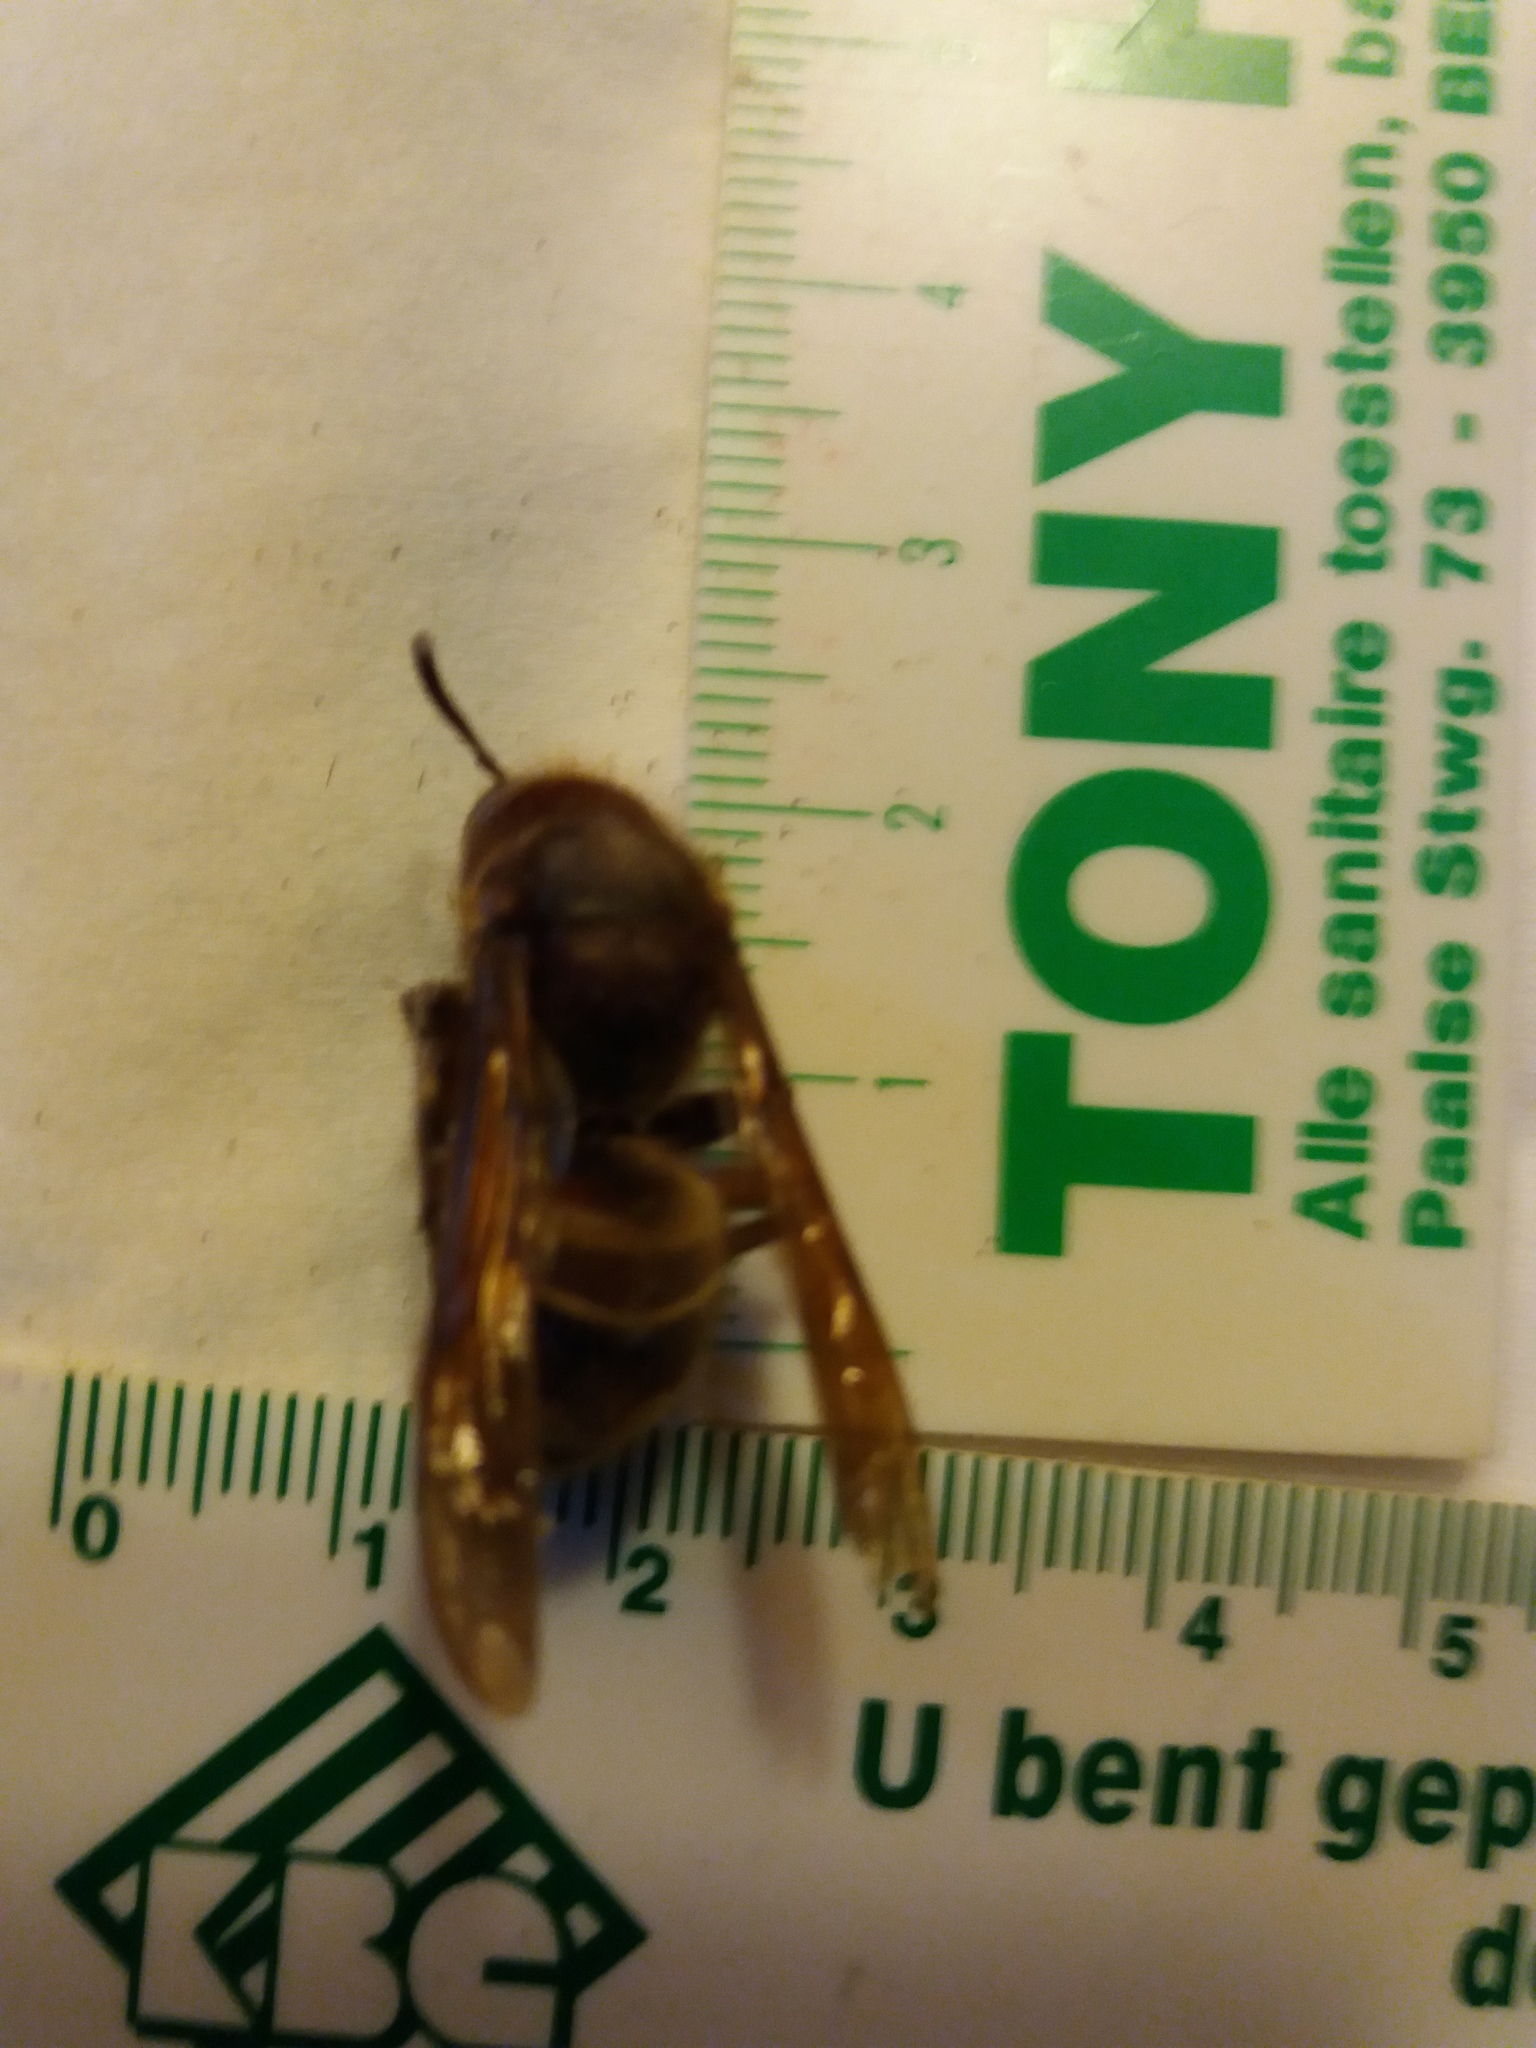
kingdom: Animalia
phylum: Arthropoda
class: Insecta
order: Hymenoptera
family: Vespidae
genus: Vespa
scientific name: Vespa crabro
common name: Hornet
